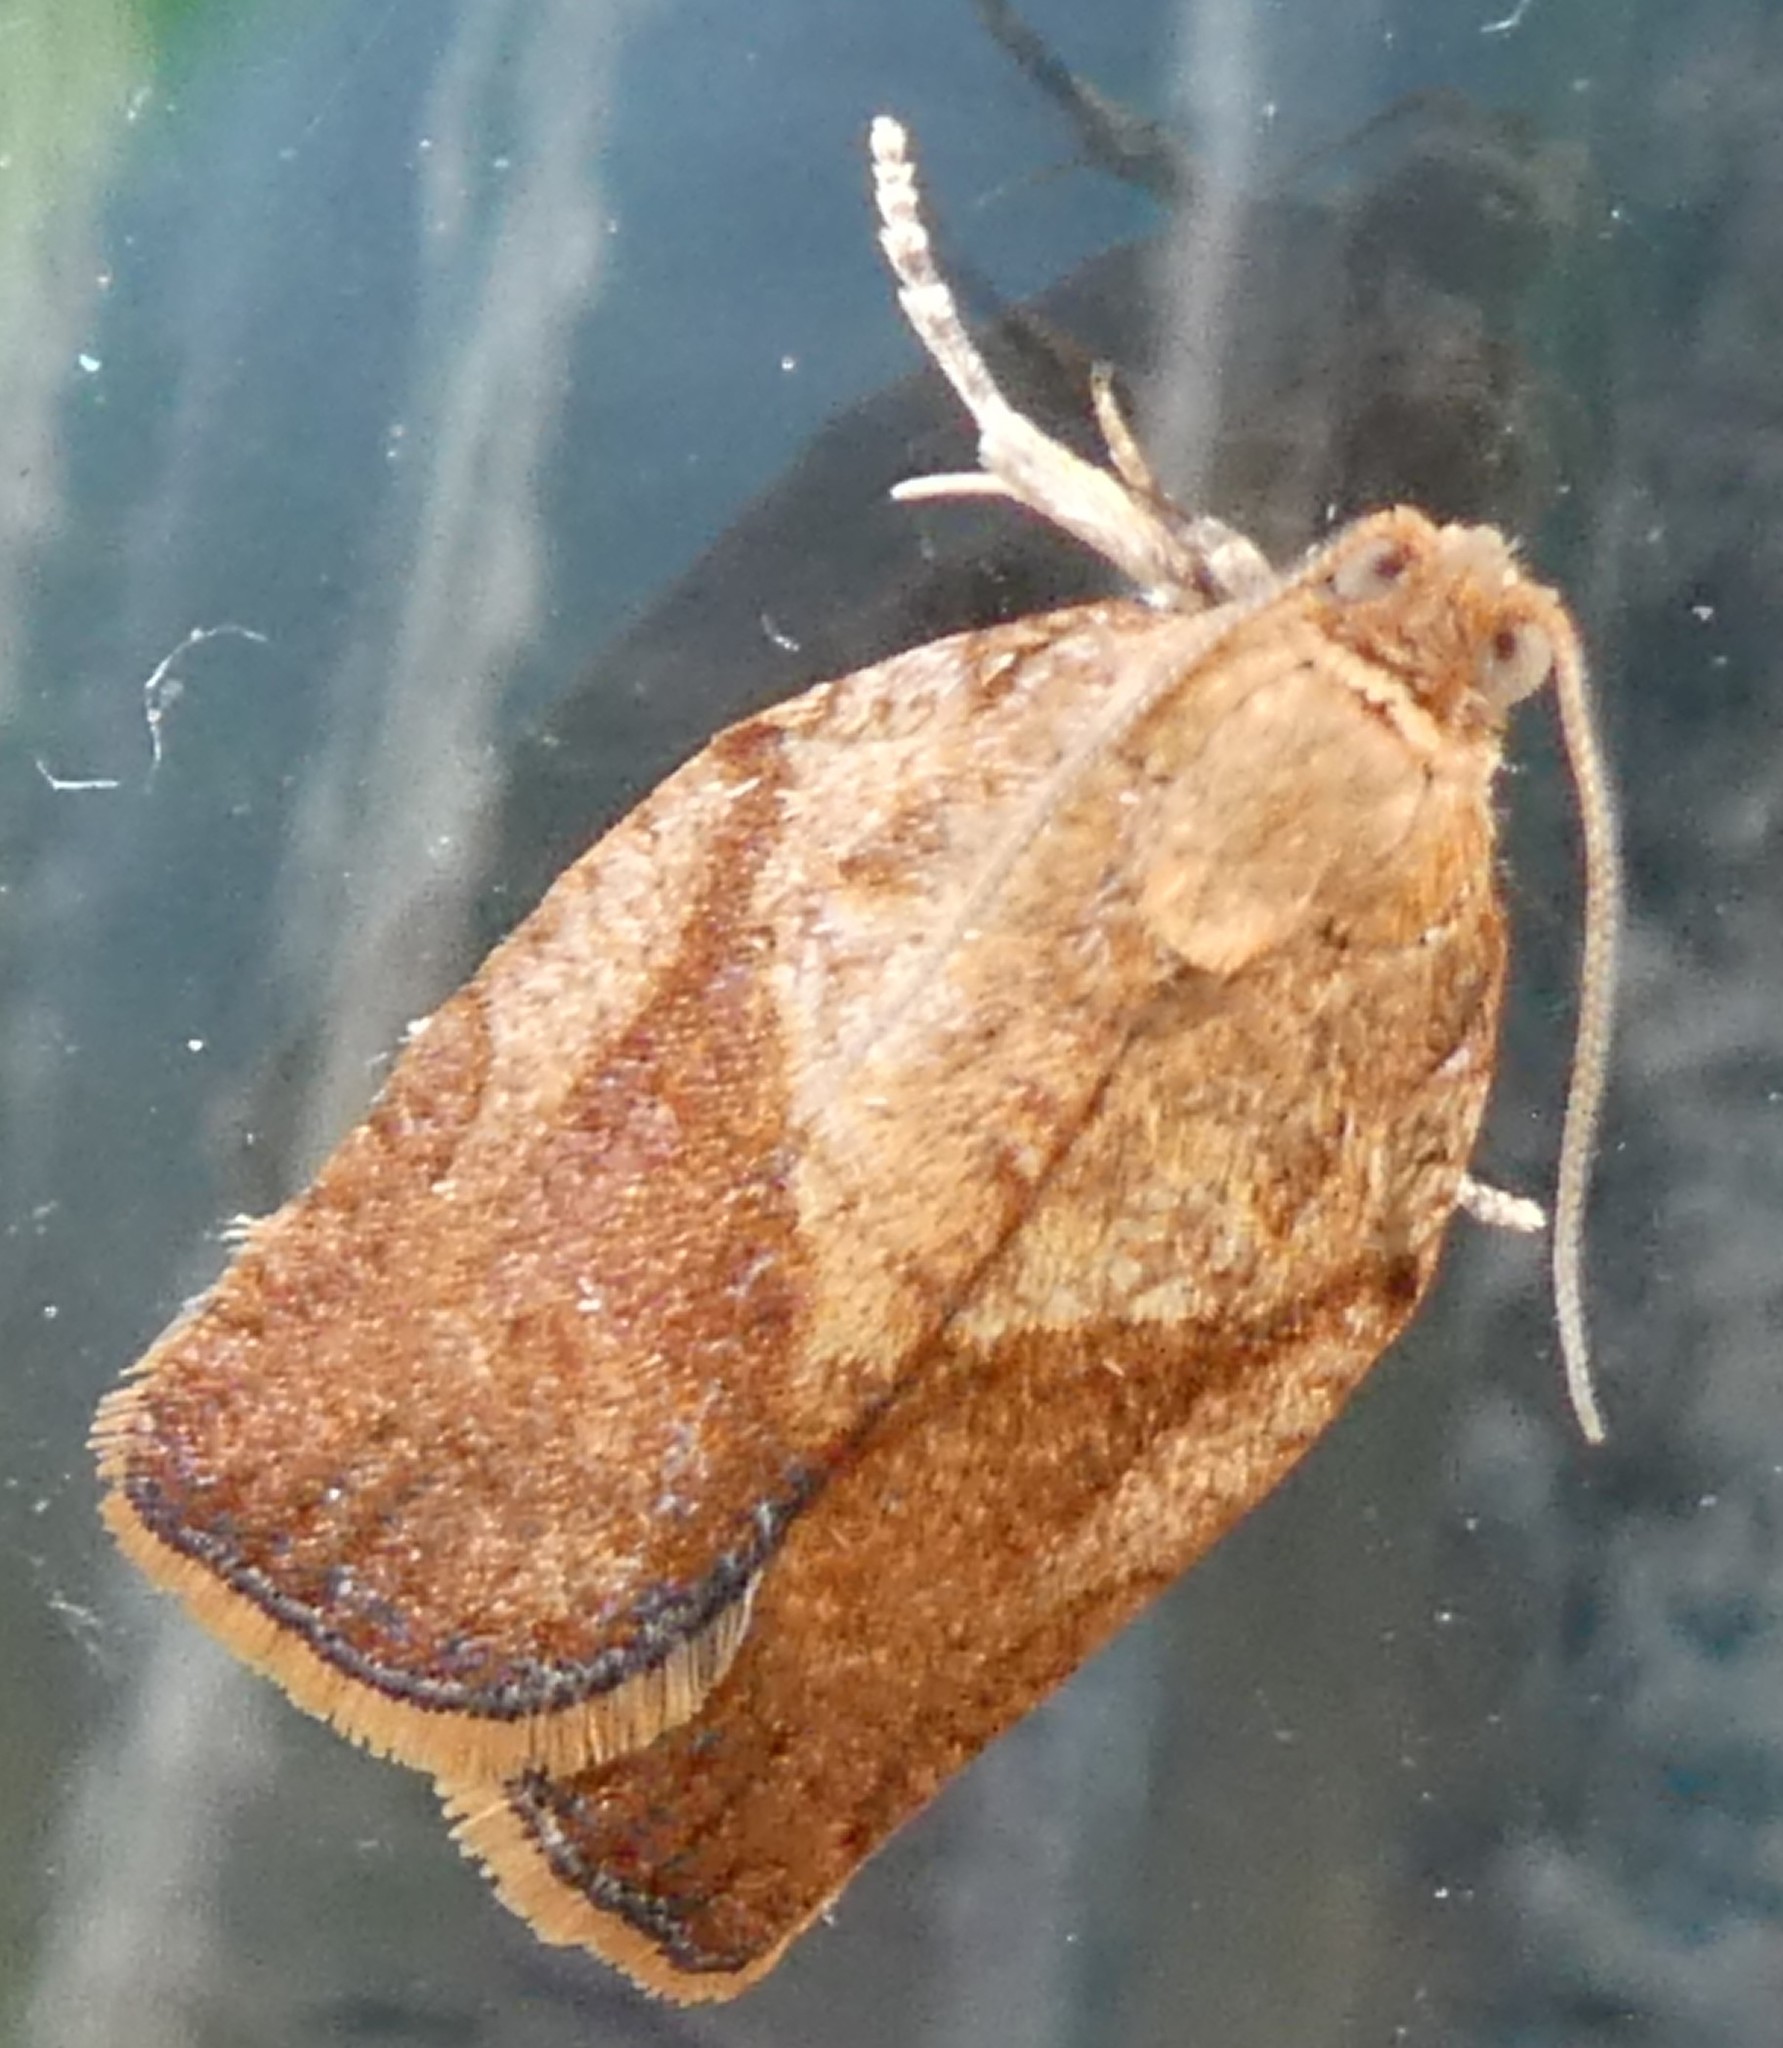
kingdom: Animalia
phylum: Arthropoda
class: Insecta
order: Lepidoptera
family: Tortricidae
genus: Epiphyas
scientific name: Epiphyas postvittana
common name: Light brown apple moth
